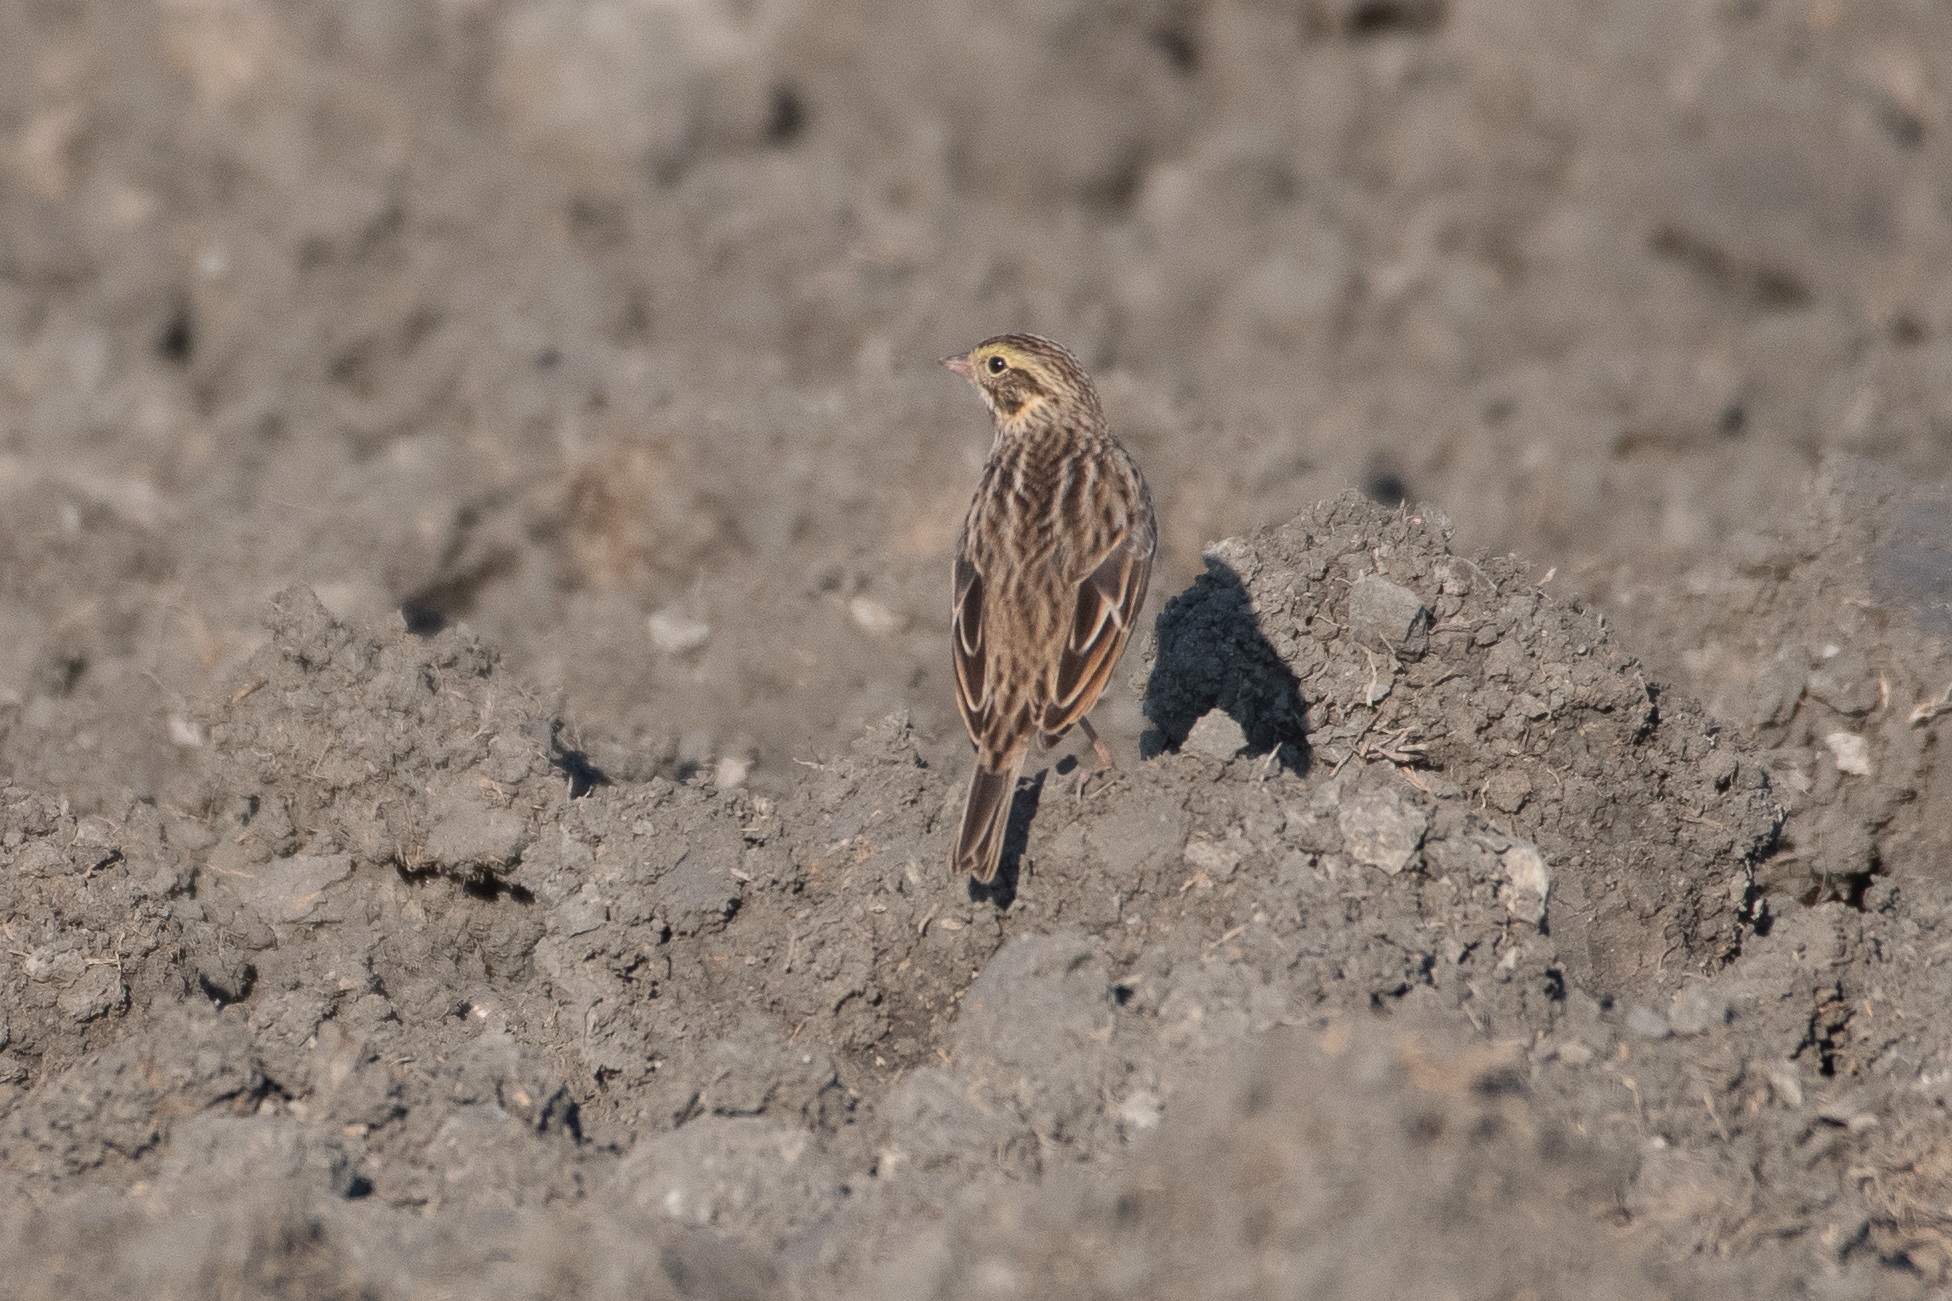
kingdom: Animalia
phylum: Chordata
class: Aves
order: Passeriformes
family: Passerellidae
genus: Passerculus
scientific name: Passerculus sandwichensis
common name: Savannah sparrow
